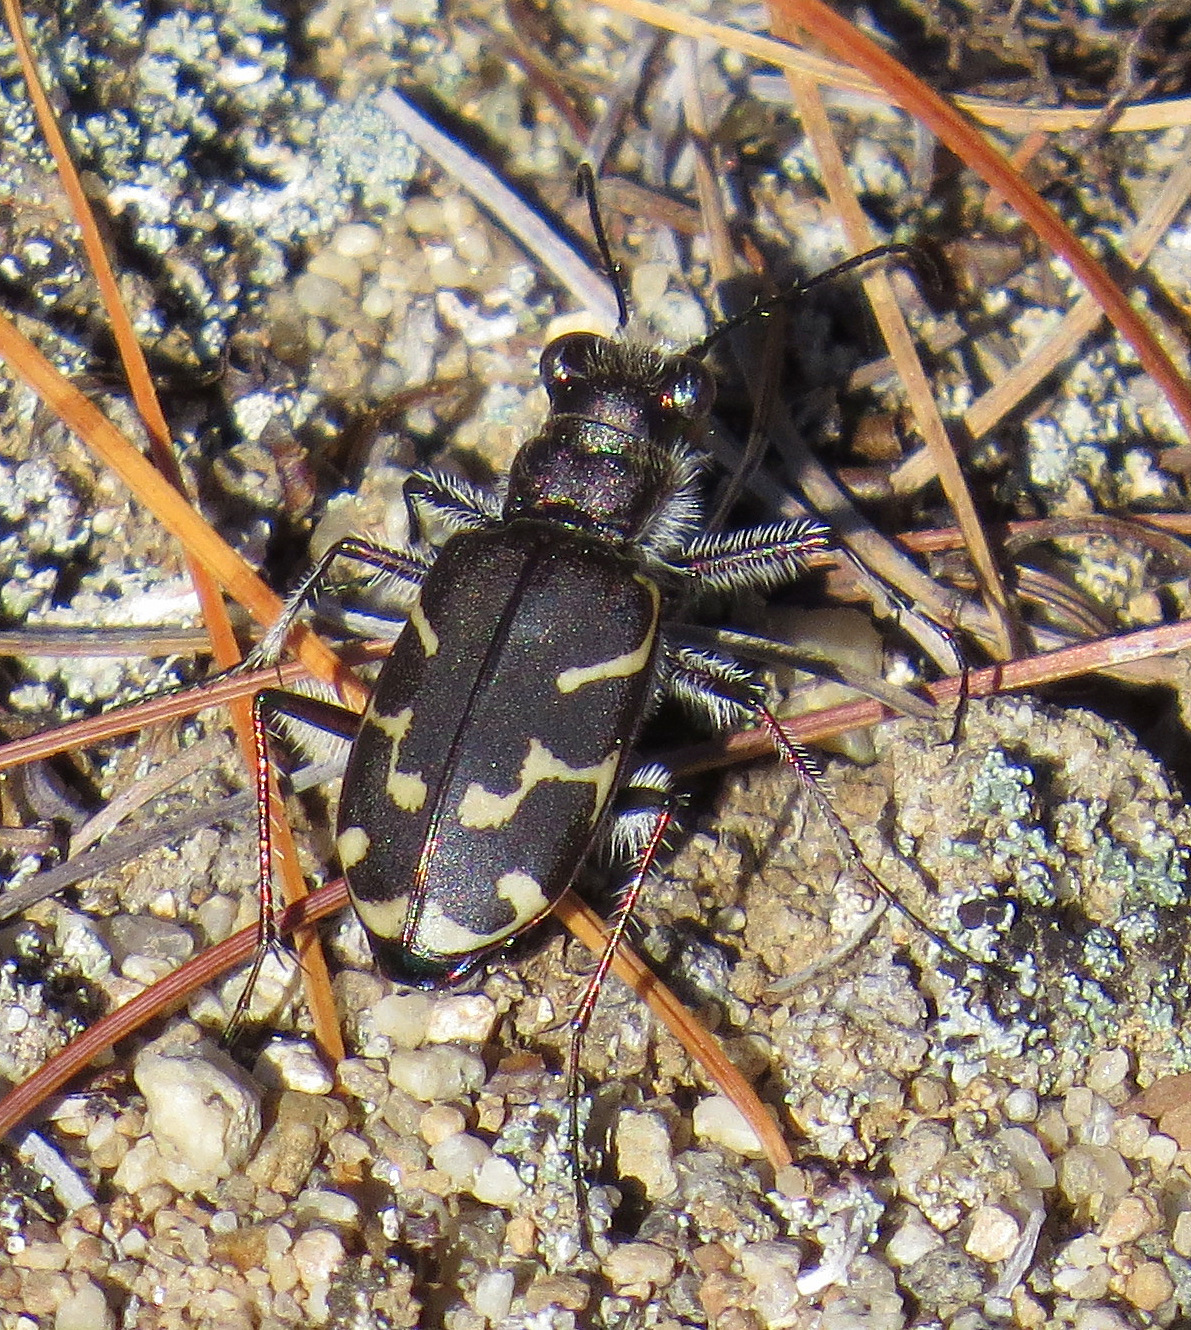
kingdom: Animalia
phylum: Arthropoda
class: Insecta
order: Coleoptera
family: Carabidae
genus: Cicindela
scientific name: Cicindela tranquebarica
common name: Oblique-lined tiger beetle
